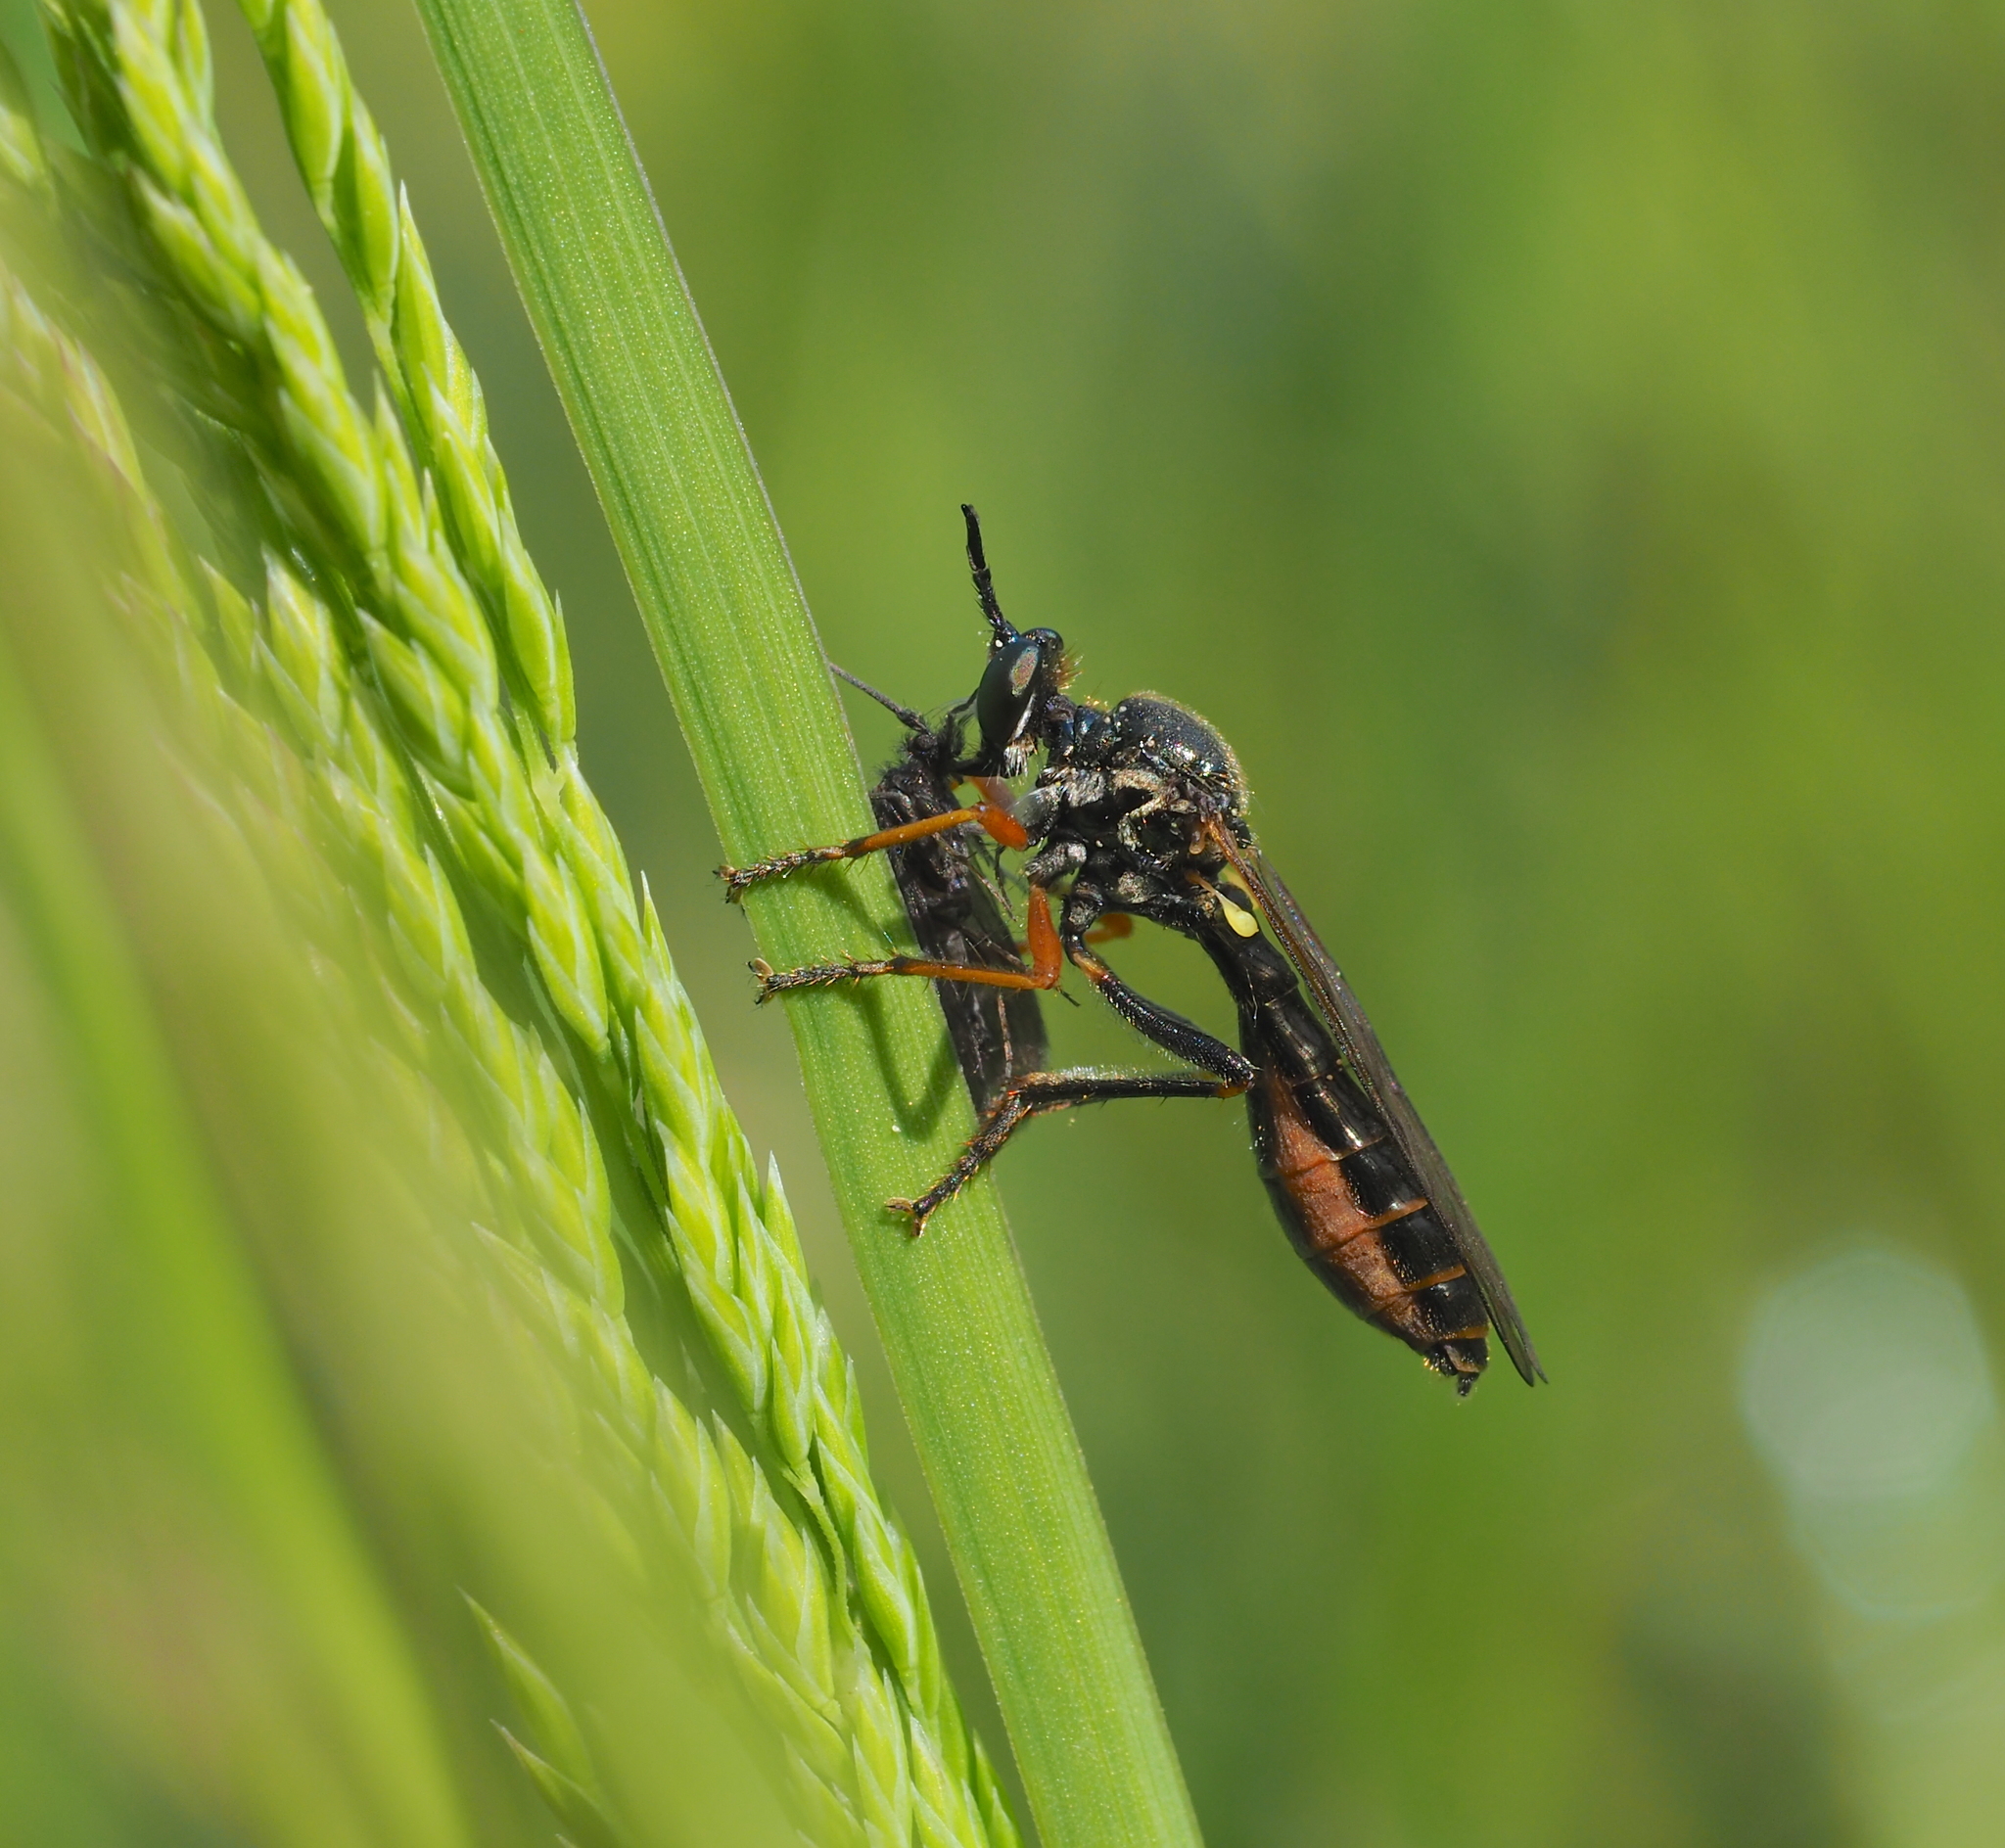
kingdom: Animalia
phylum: Arthropoda
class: Insecta
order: Diptera
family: Asilidae
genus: Dioctria
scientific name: Dioctria rufipes
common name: Common red-legged robberfly
